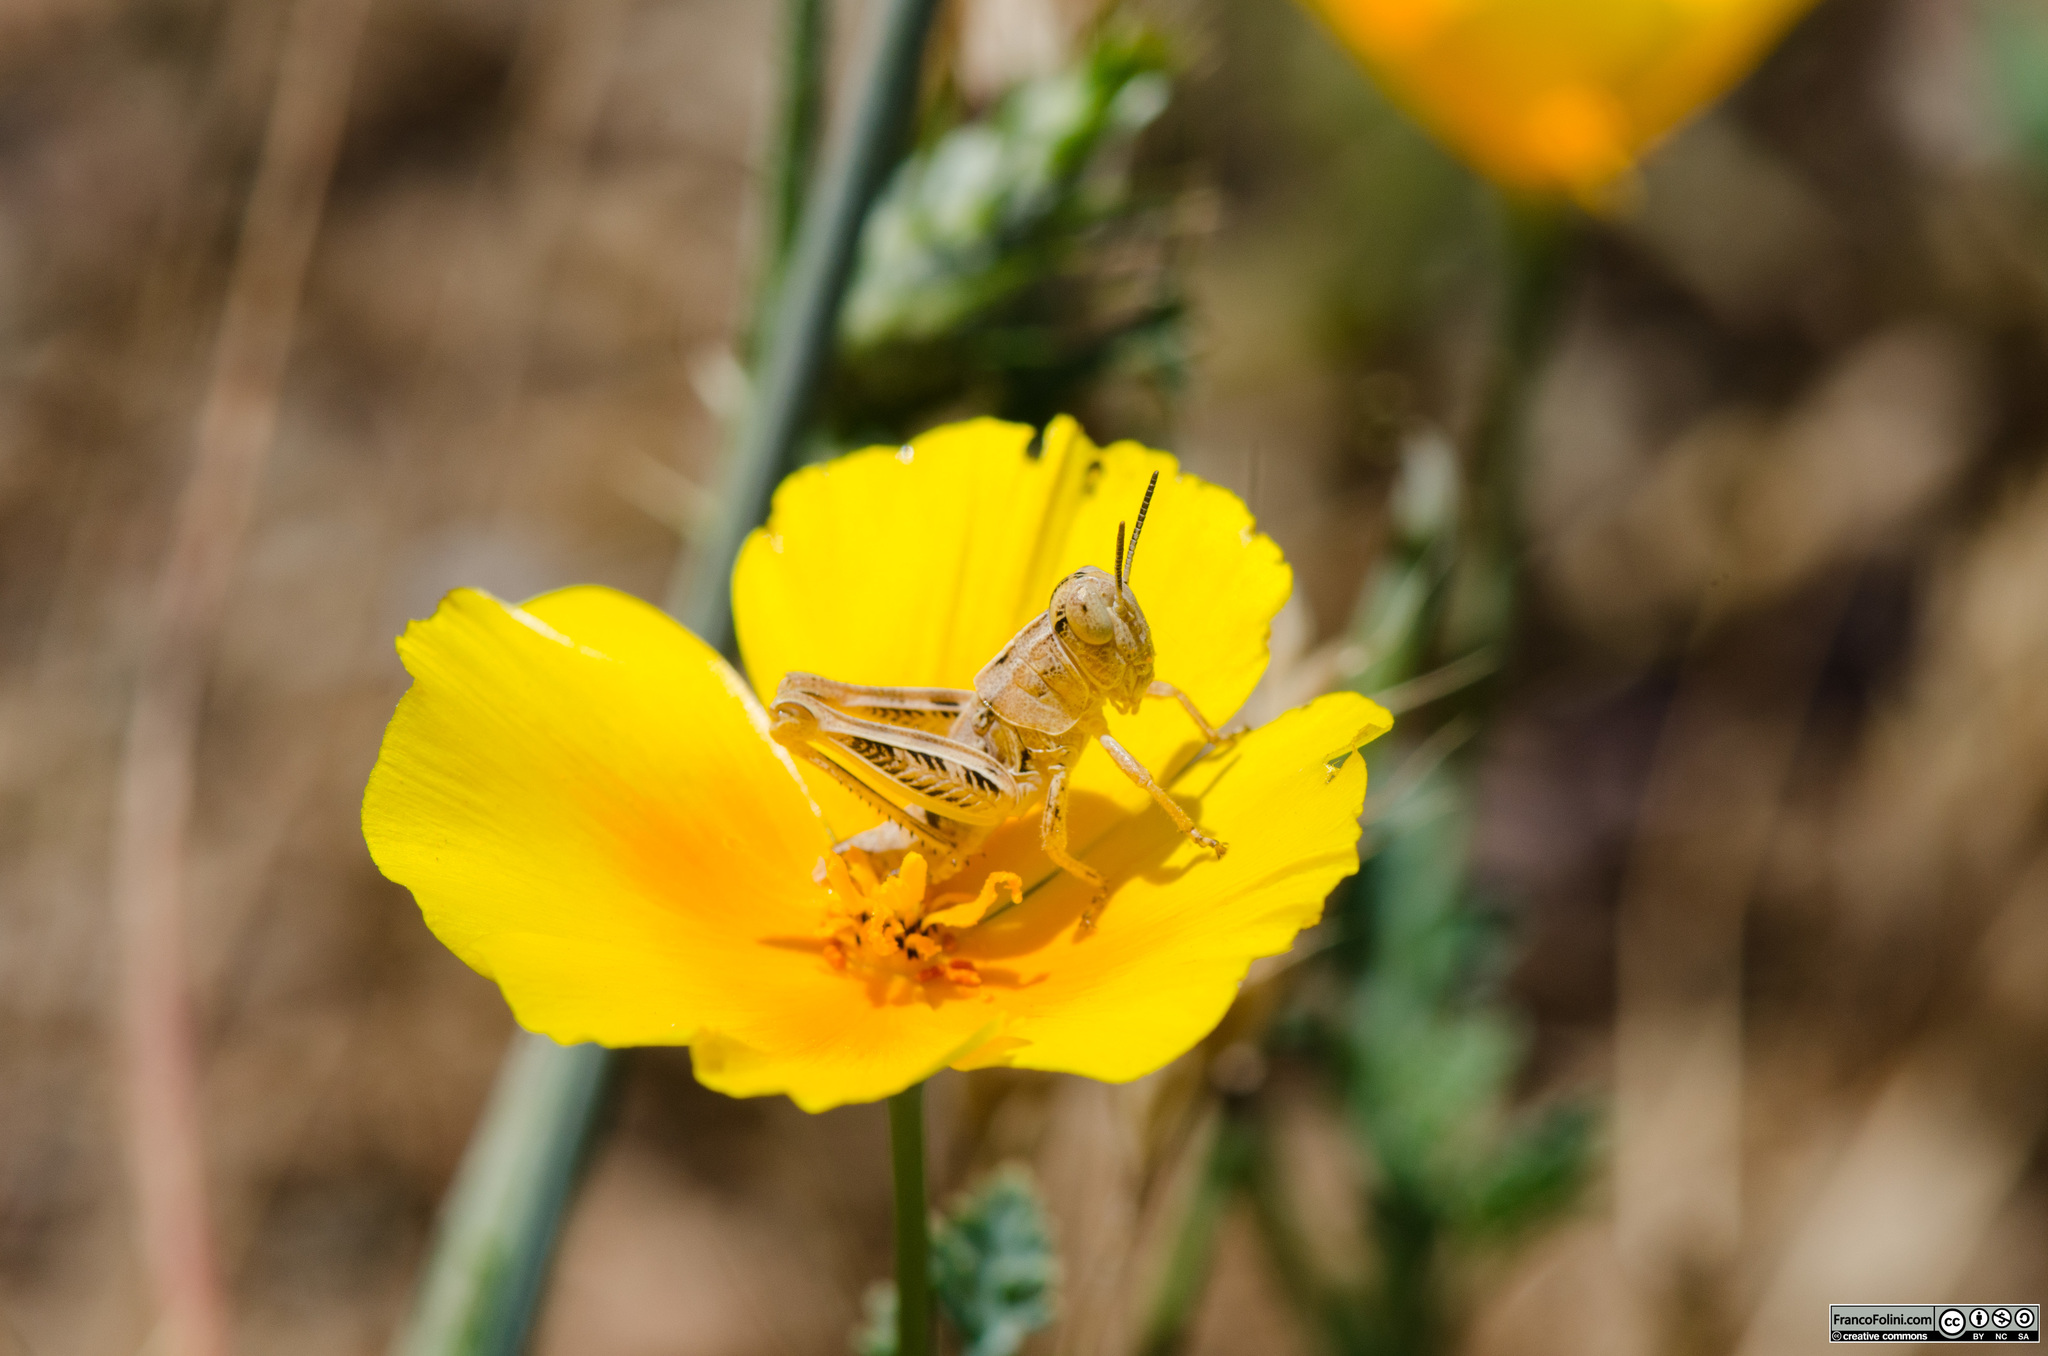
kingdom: Animalia
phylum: Arthropoda
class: Insecta
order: Orthoptera
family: Acrididae
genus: Oedaleonotus
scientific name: Oedaleonotus enigma
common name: Valley grasshopper
